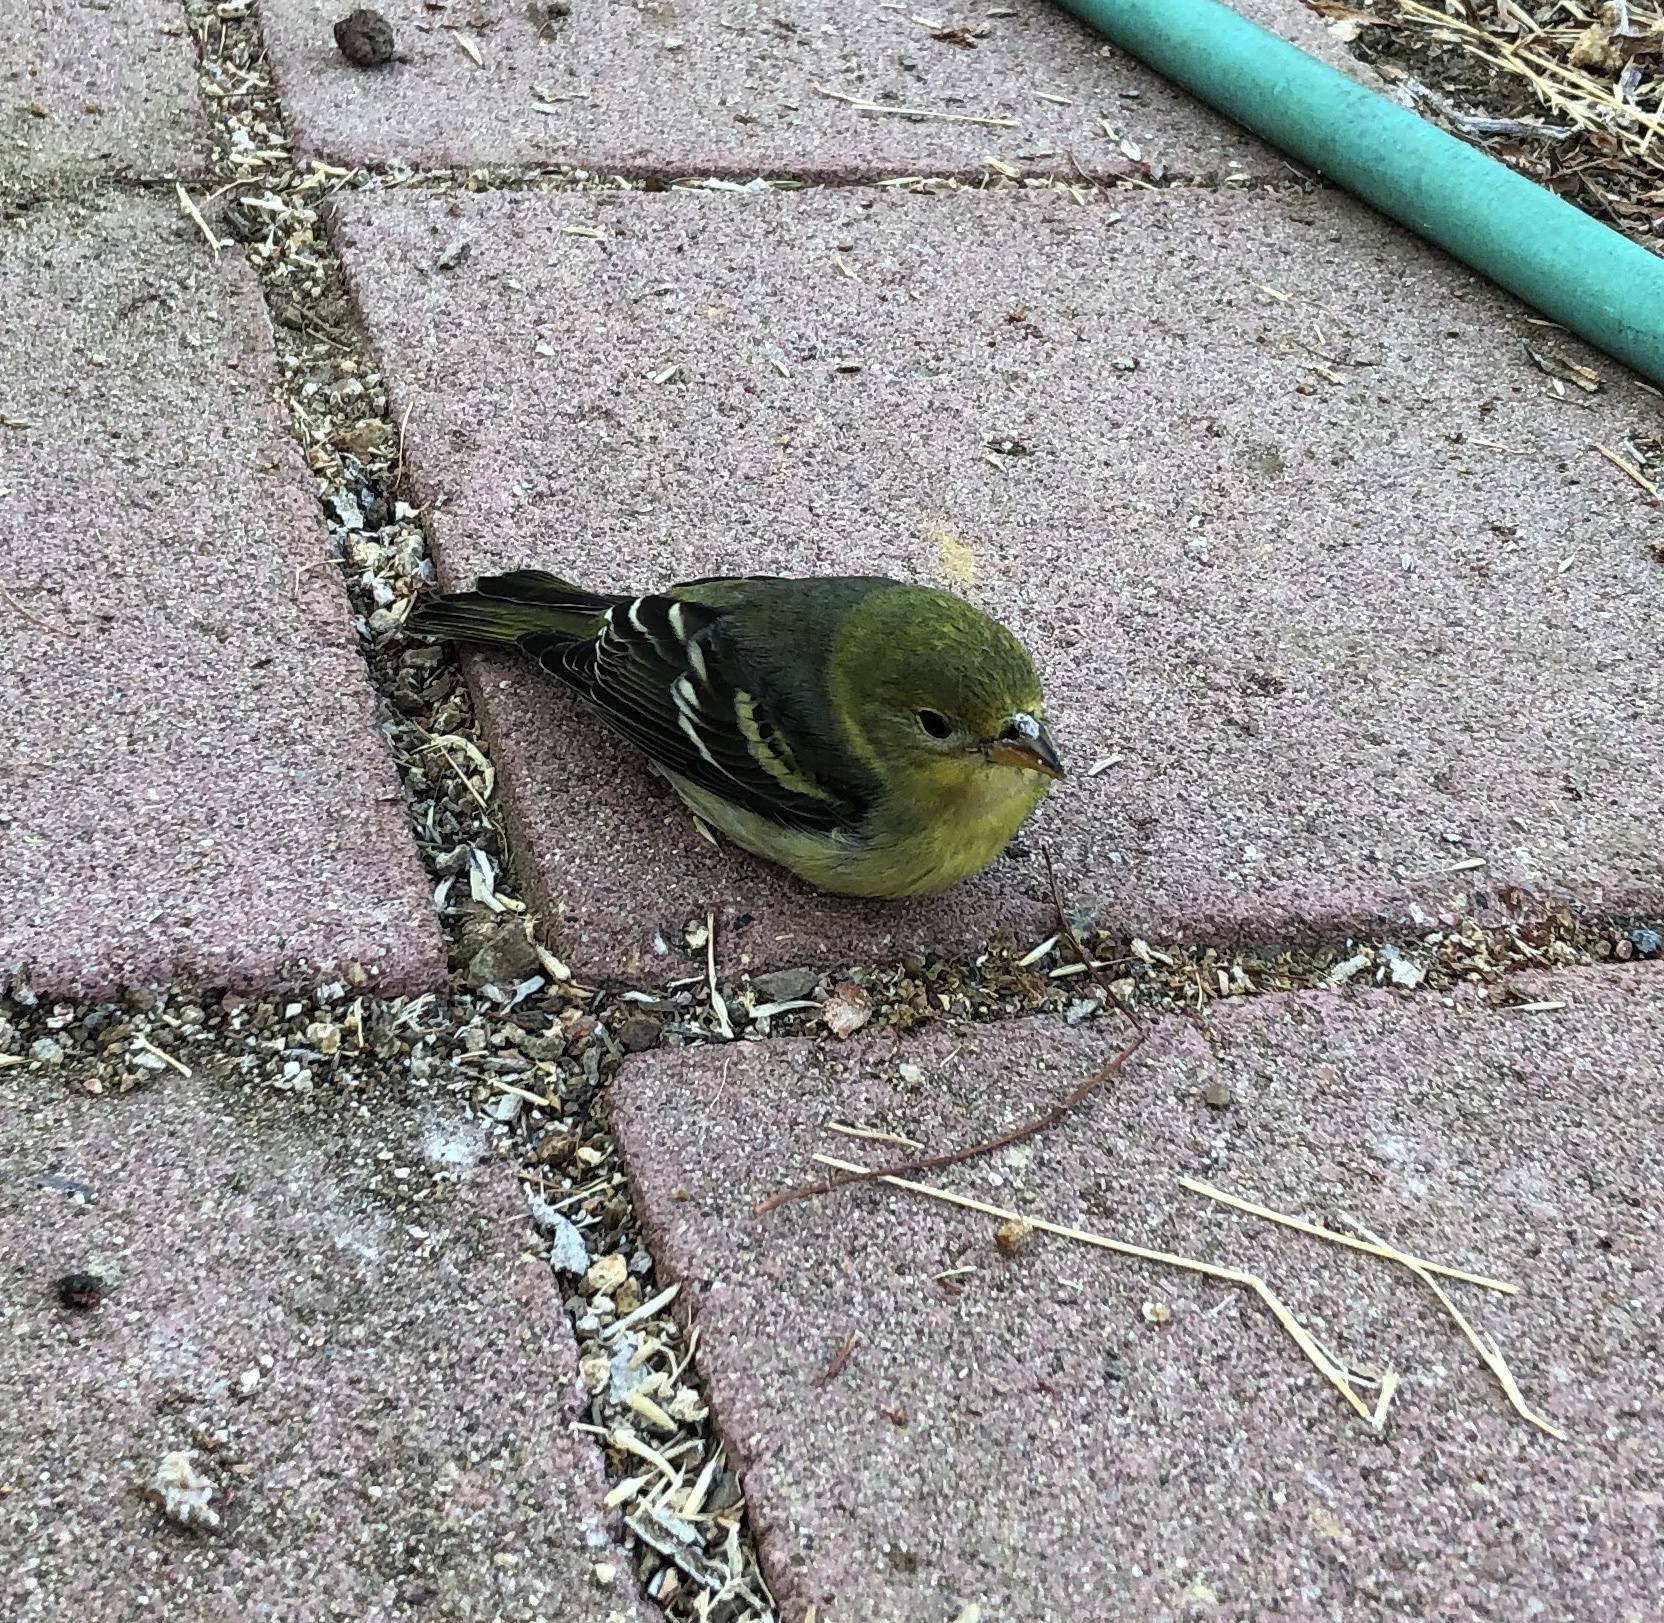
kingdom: Animalia
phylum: Chordata
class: Aves
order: Passeriformes
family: Cardinalidae
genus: Piranga
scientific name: Piranga ludoviciana
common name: Western tanager
